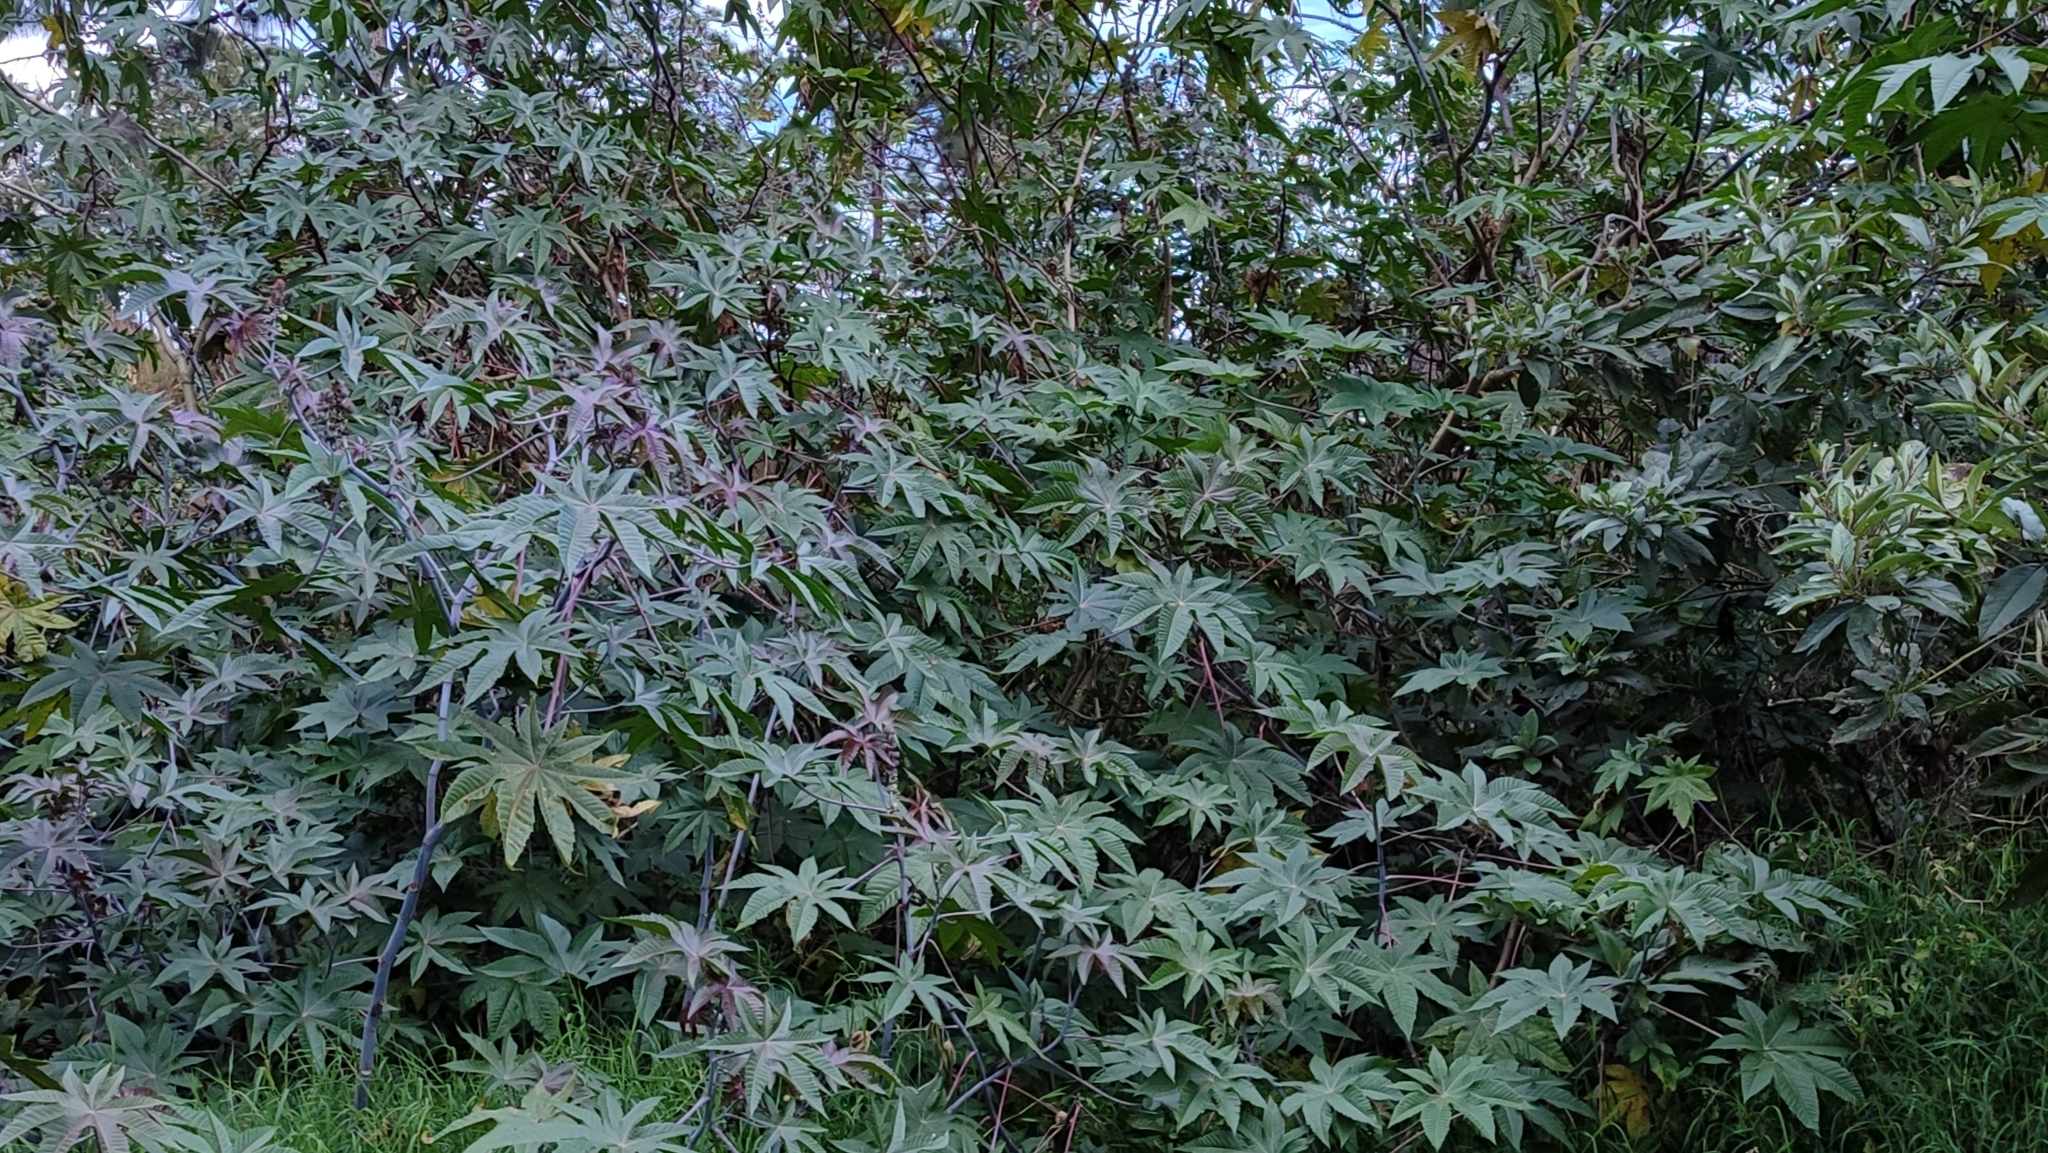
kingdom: Plantae
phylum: Tracheophyta
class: Magnoliopsida
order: Malpighiales
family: Euphorbiaceae
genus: Ricinus
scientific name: Ricinus communis
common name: Castor-oil-plant
